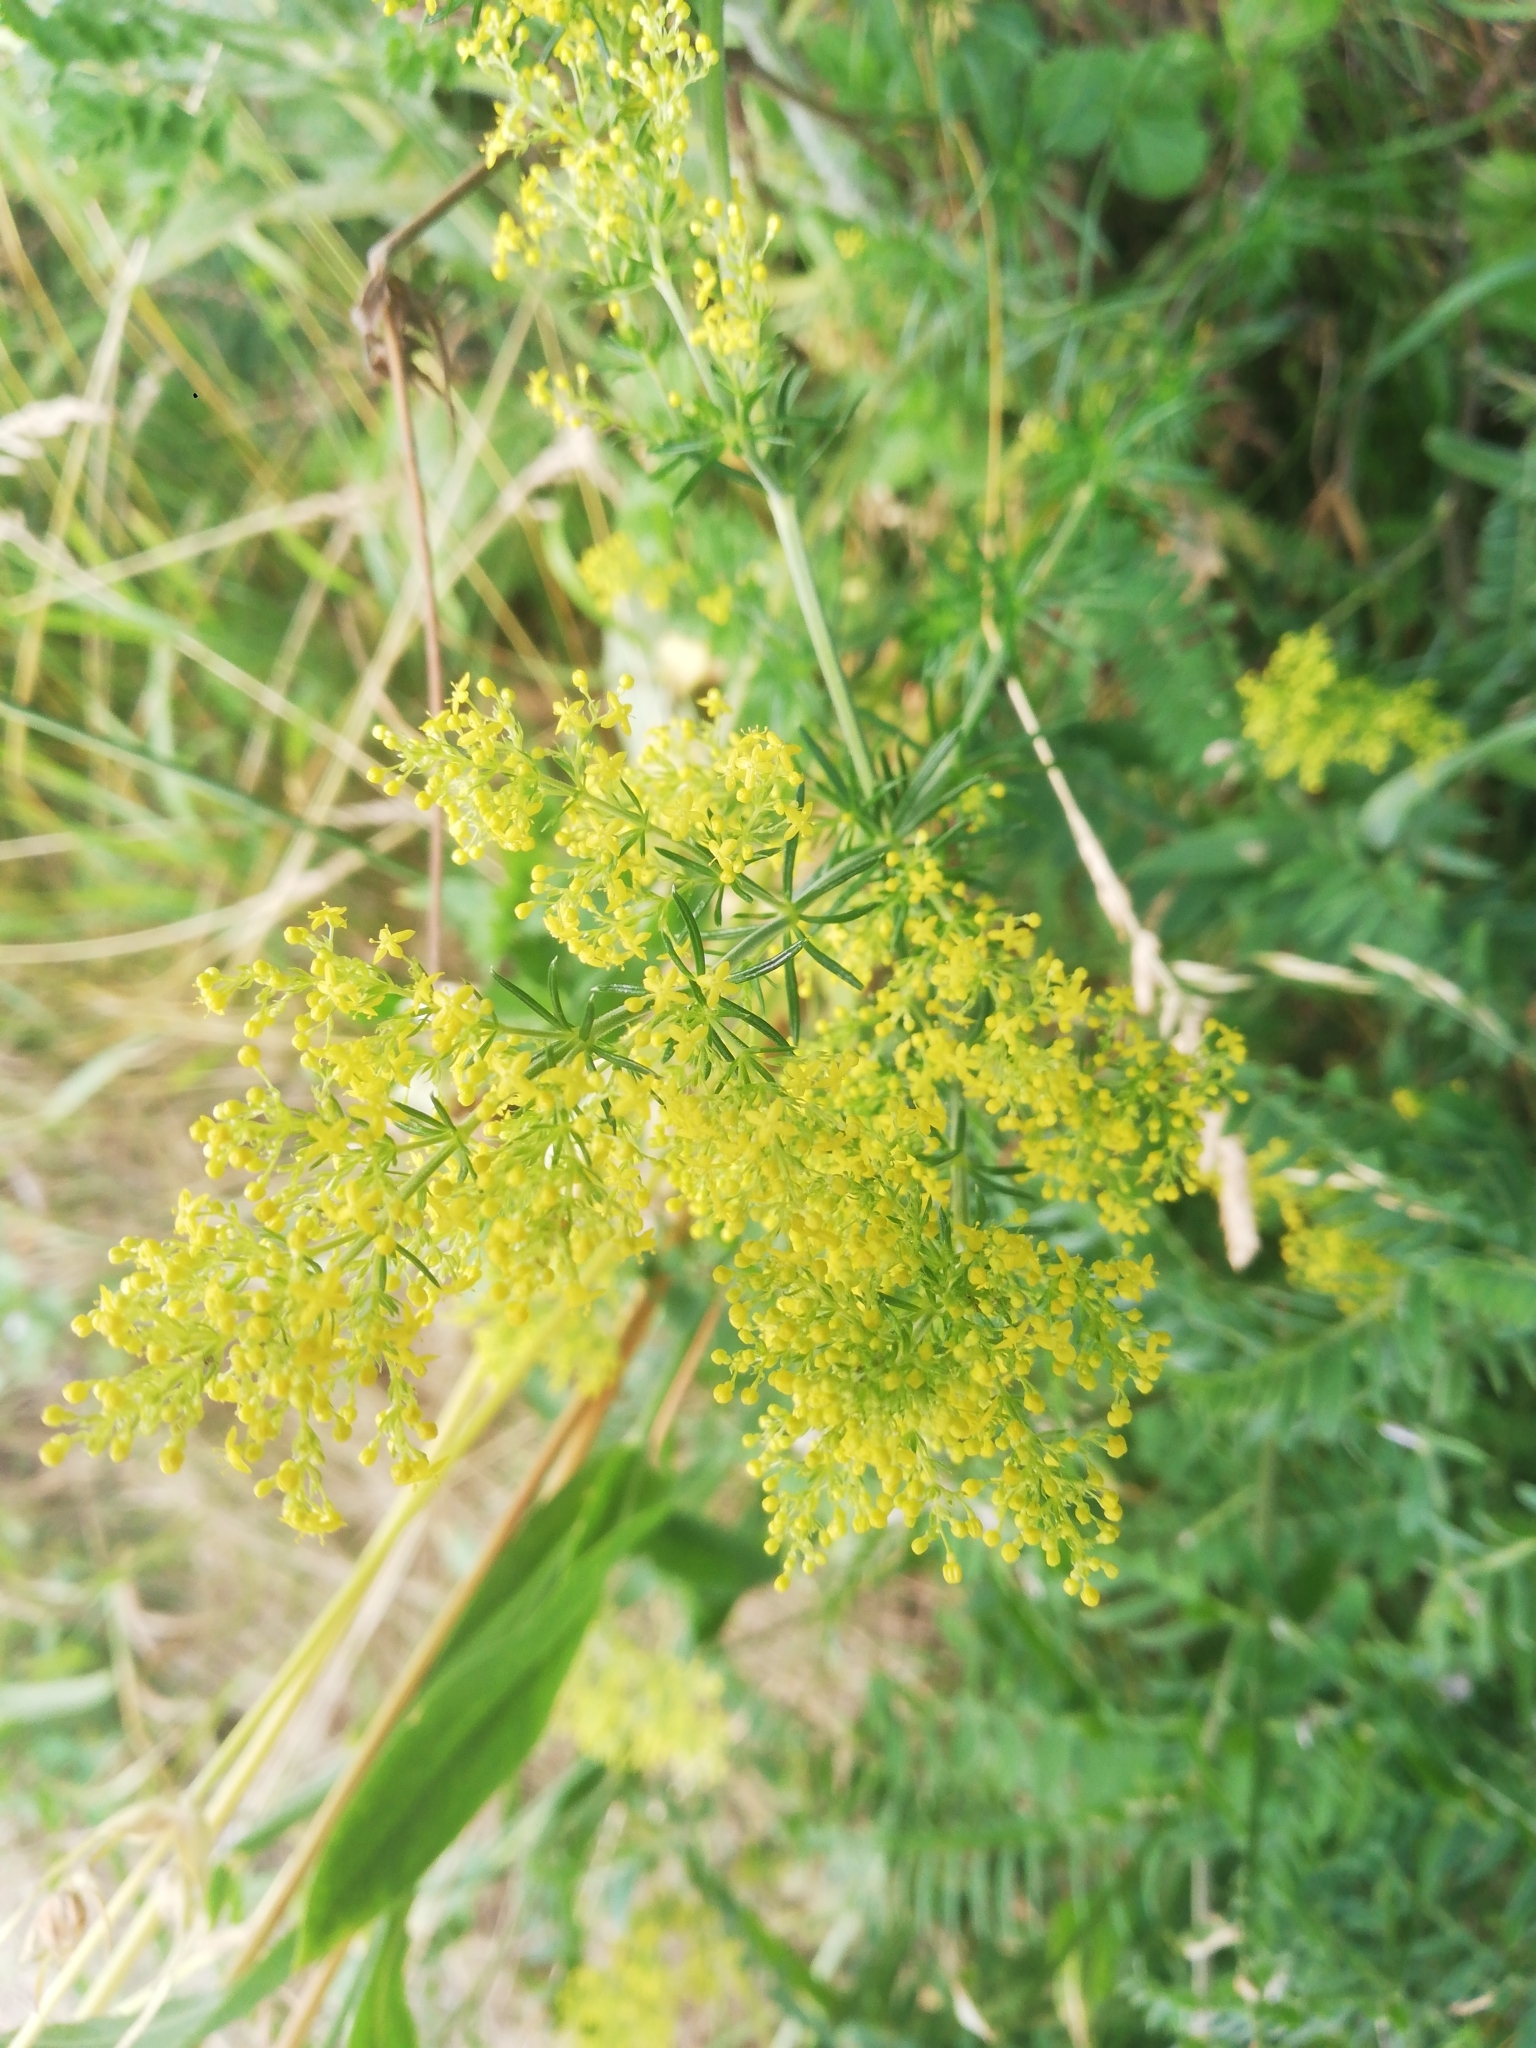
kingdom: Plantae
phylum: Tracheophyta
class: Magnoliopsida
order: Gentianales
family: Rubiaceae
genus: Galium
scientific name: Galium verum
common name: Lady's bedstraw
